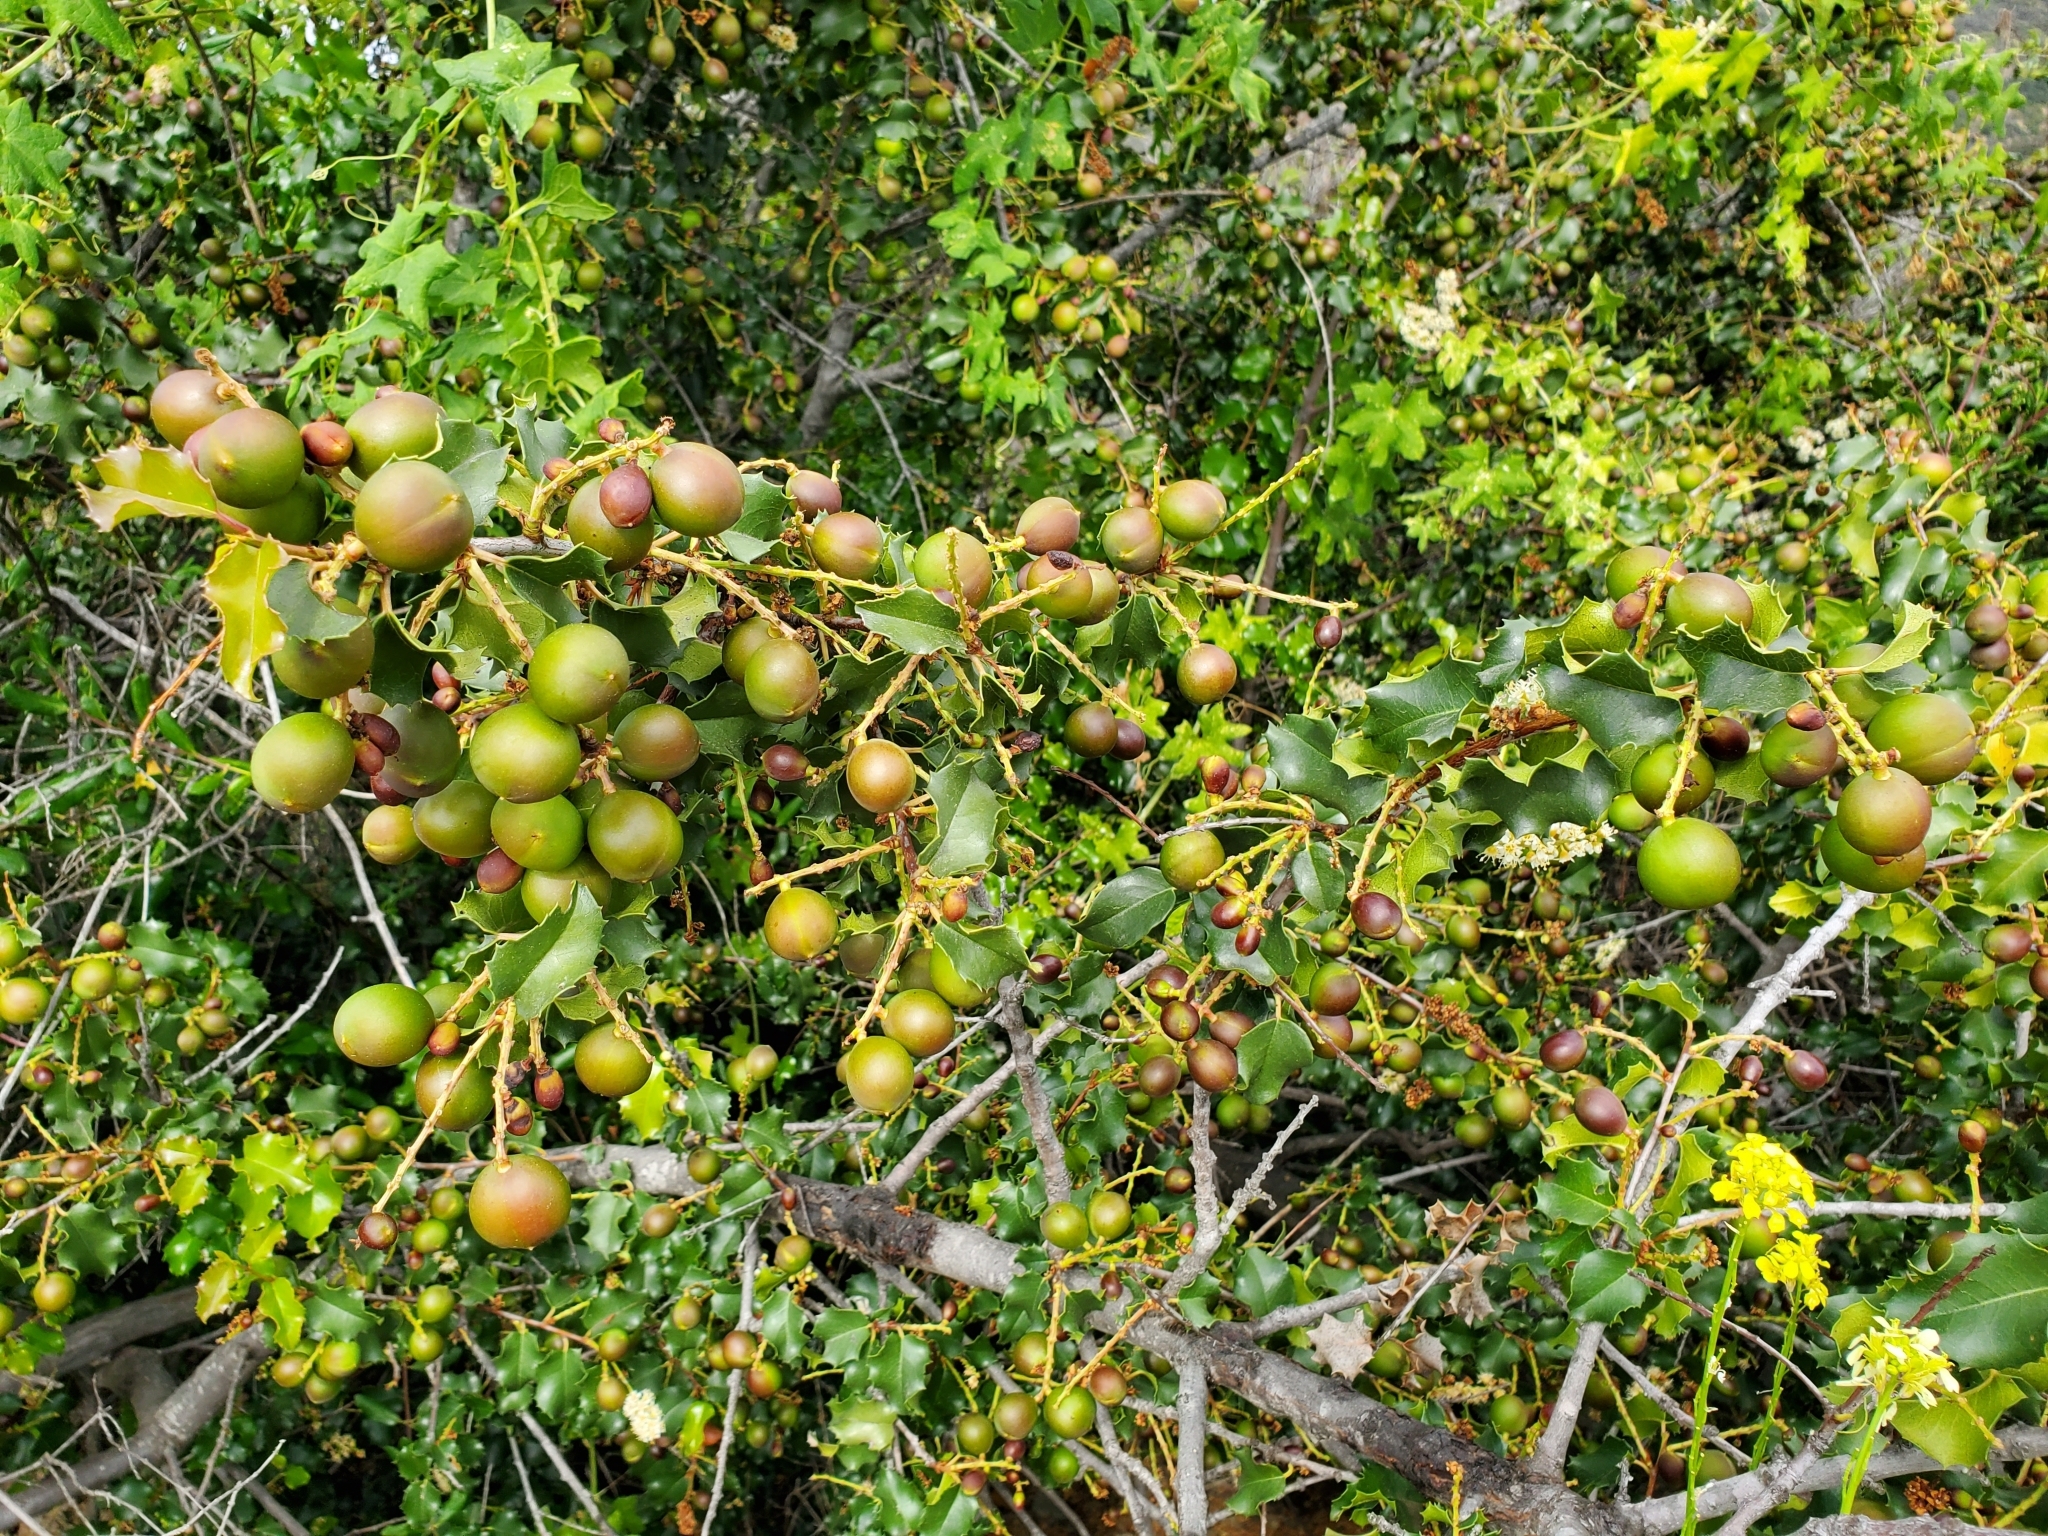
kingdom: Plantae
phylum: Tracheophyta
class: Magnoliopsida
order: Rosales
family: Rosaceae
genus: Prunus
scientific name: Prunus ilicifolia
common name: Hollyleaf cherry
